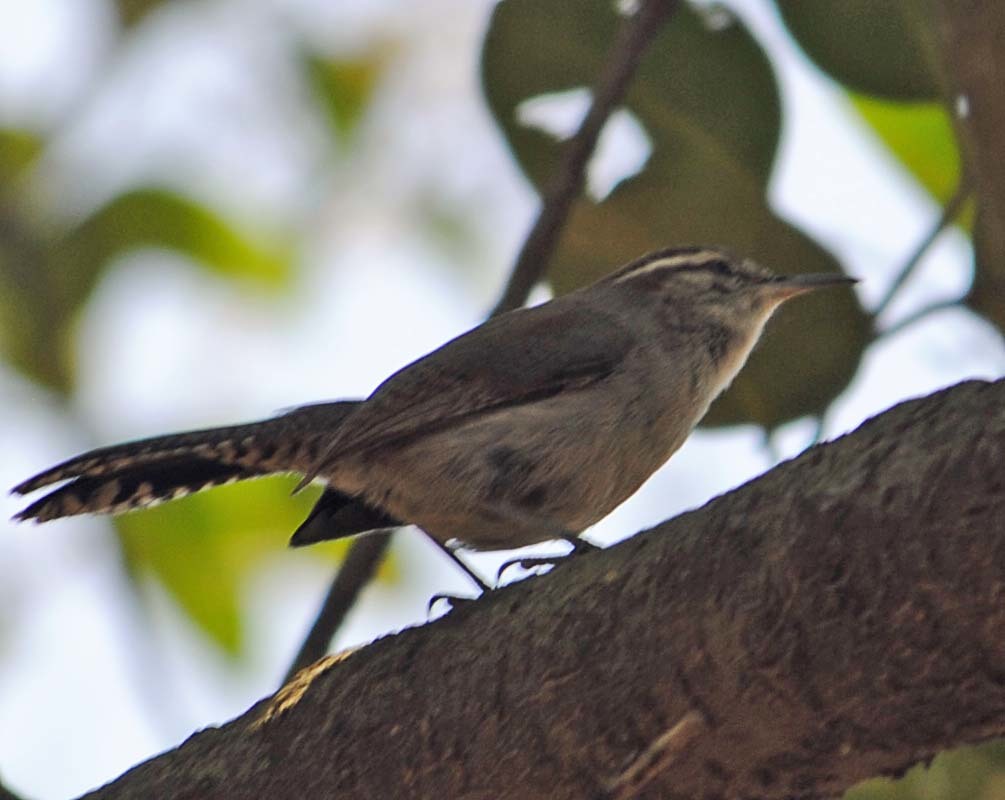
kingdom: Animalia
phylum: Chordata
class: Aves
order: Passeriformes
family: Troglodytidae
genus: Thryomanes
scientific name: Thryomanes bewickii
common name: Bewick's wren
